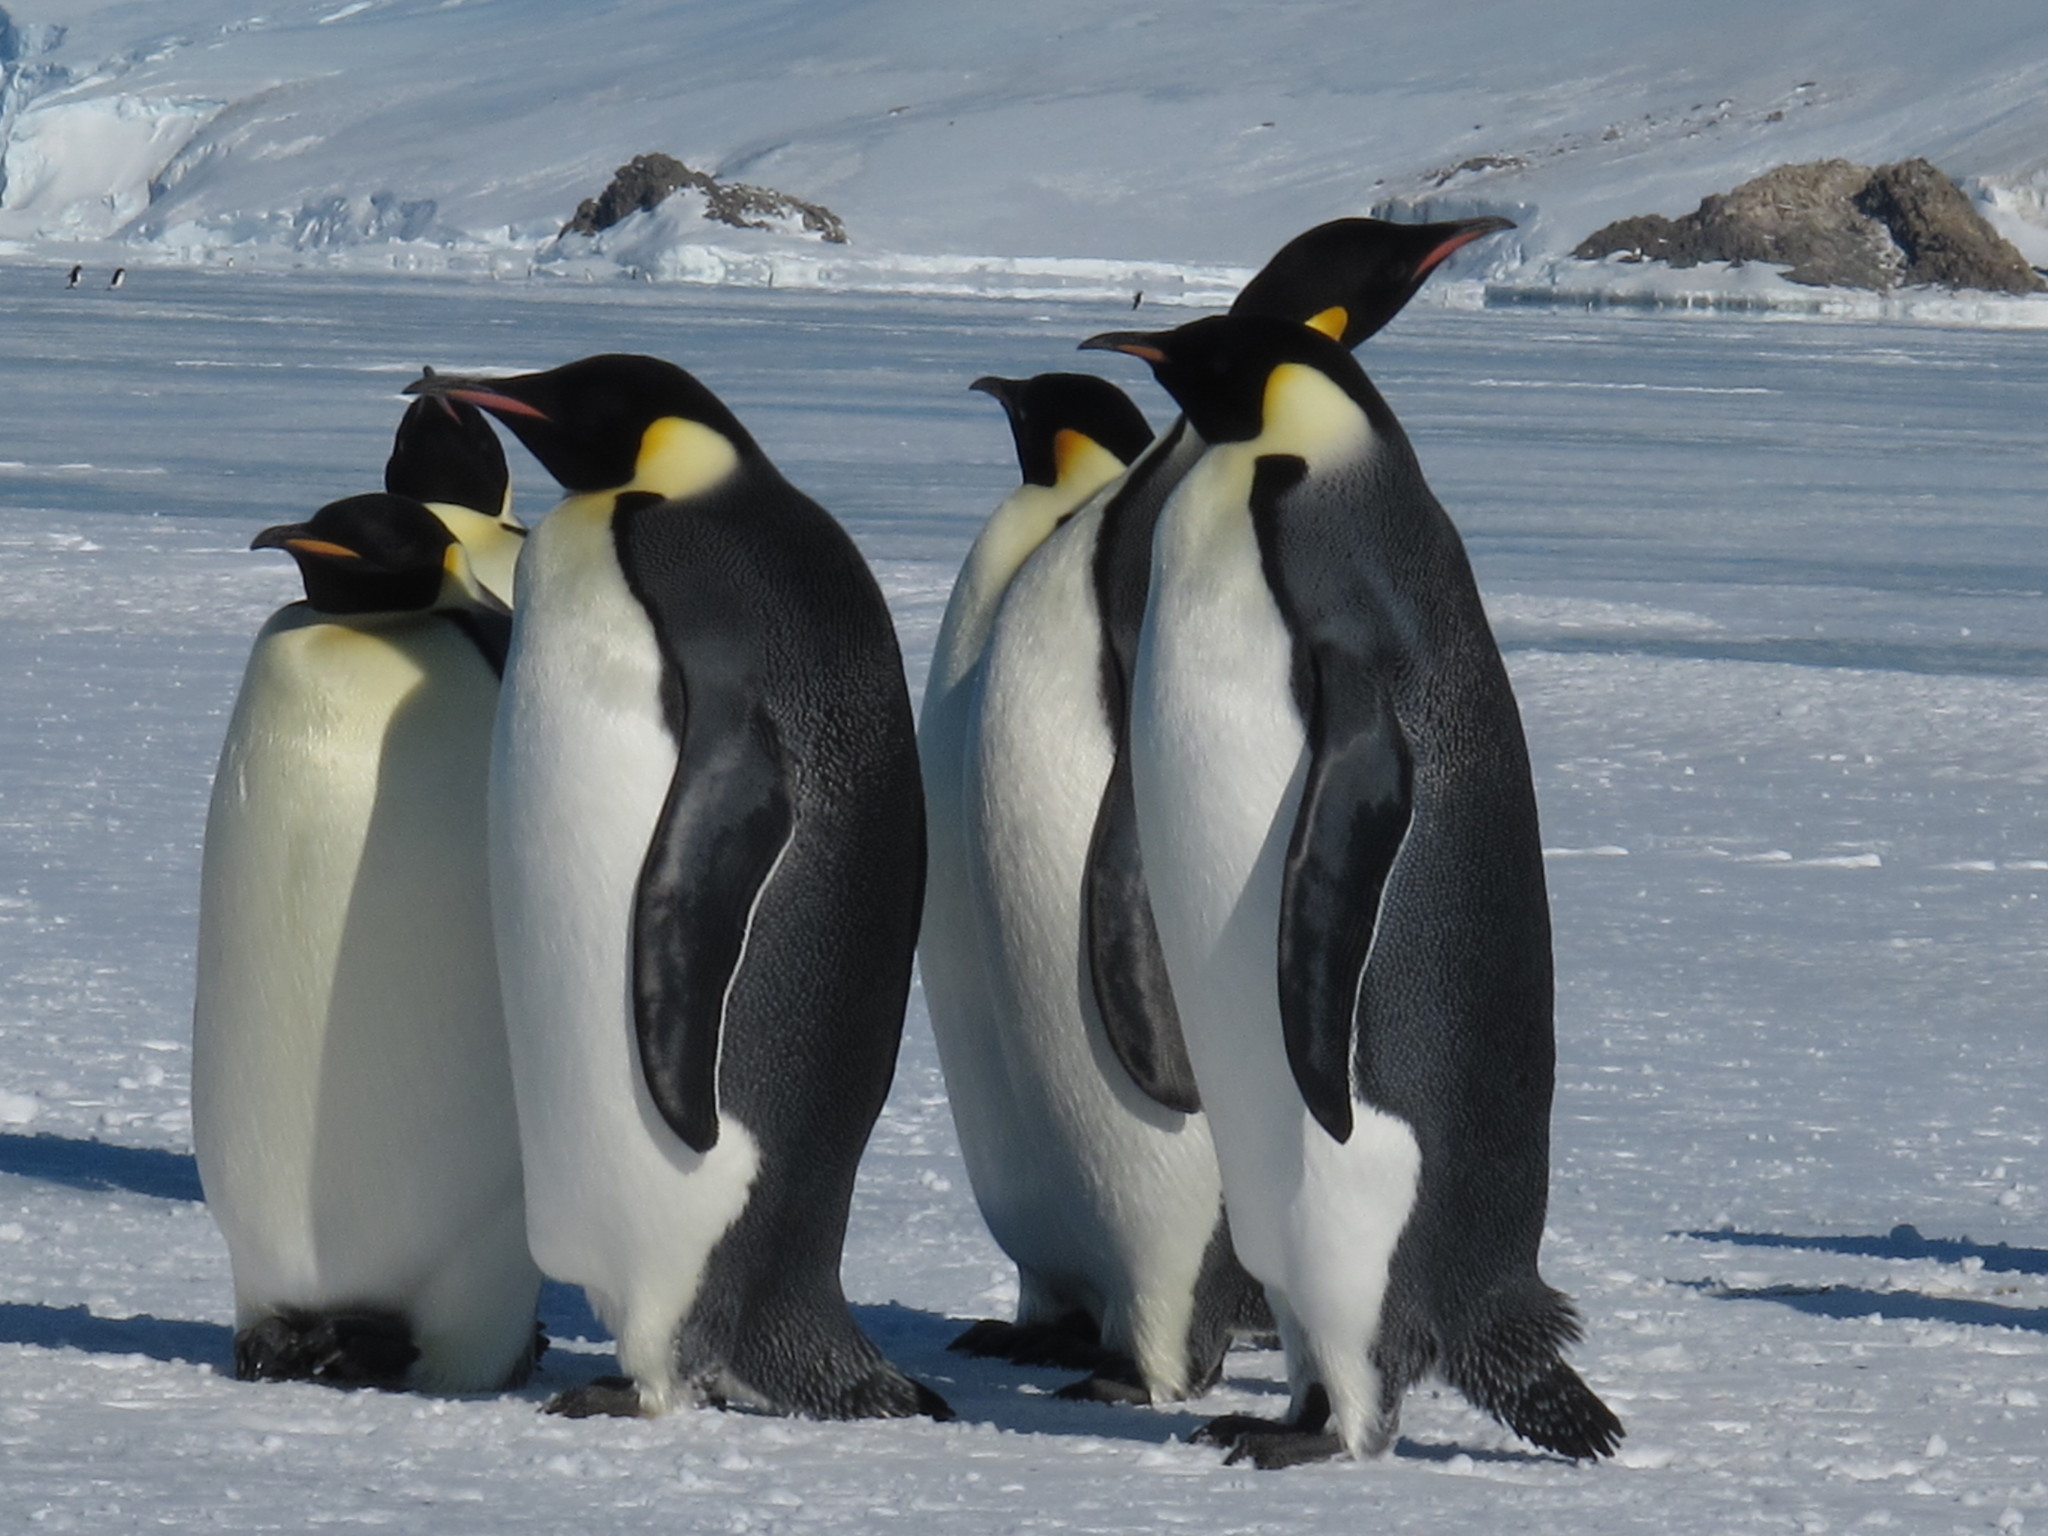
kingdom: Animalia
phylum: Chordata
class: Aves
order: Sphenisciformes
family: Spheniscidae
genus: Aptenodytes
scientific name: Aptenodytes forsteri
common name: Emperor penguin
